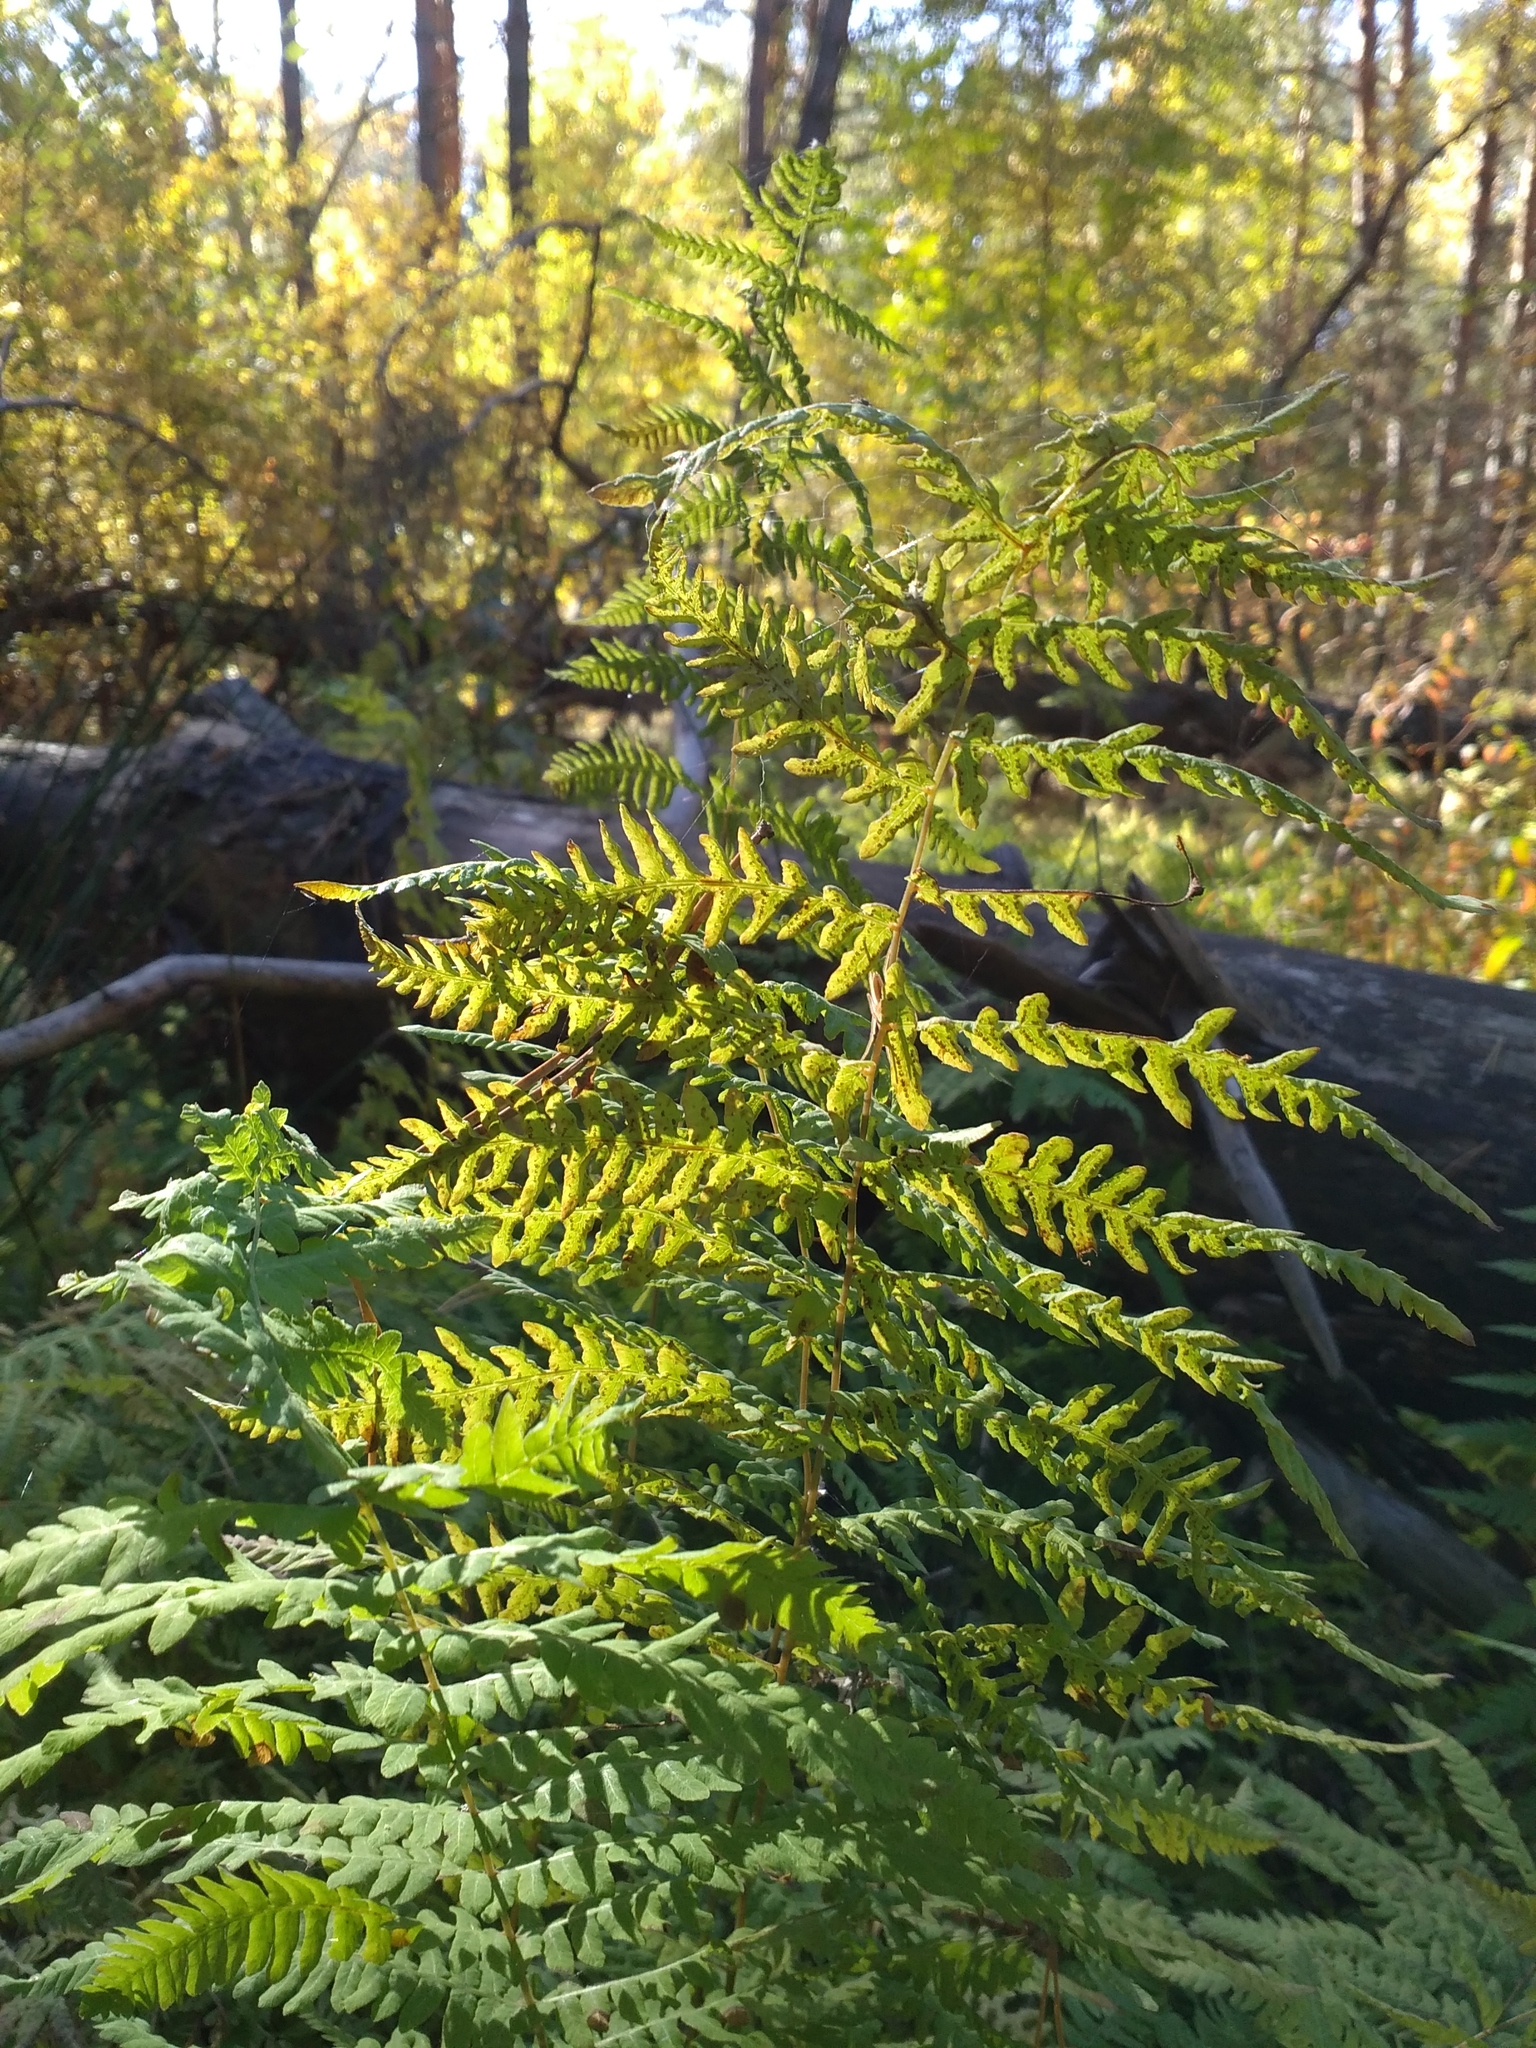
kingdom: Plantae
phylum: Tracheophyta
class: Polypodiopsida
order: Polypodiales
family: Thelypteridaceae
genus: Thelypteris
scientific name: Thelypteris palustris
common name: Marsh fern
